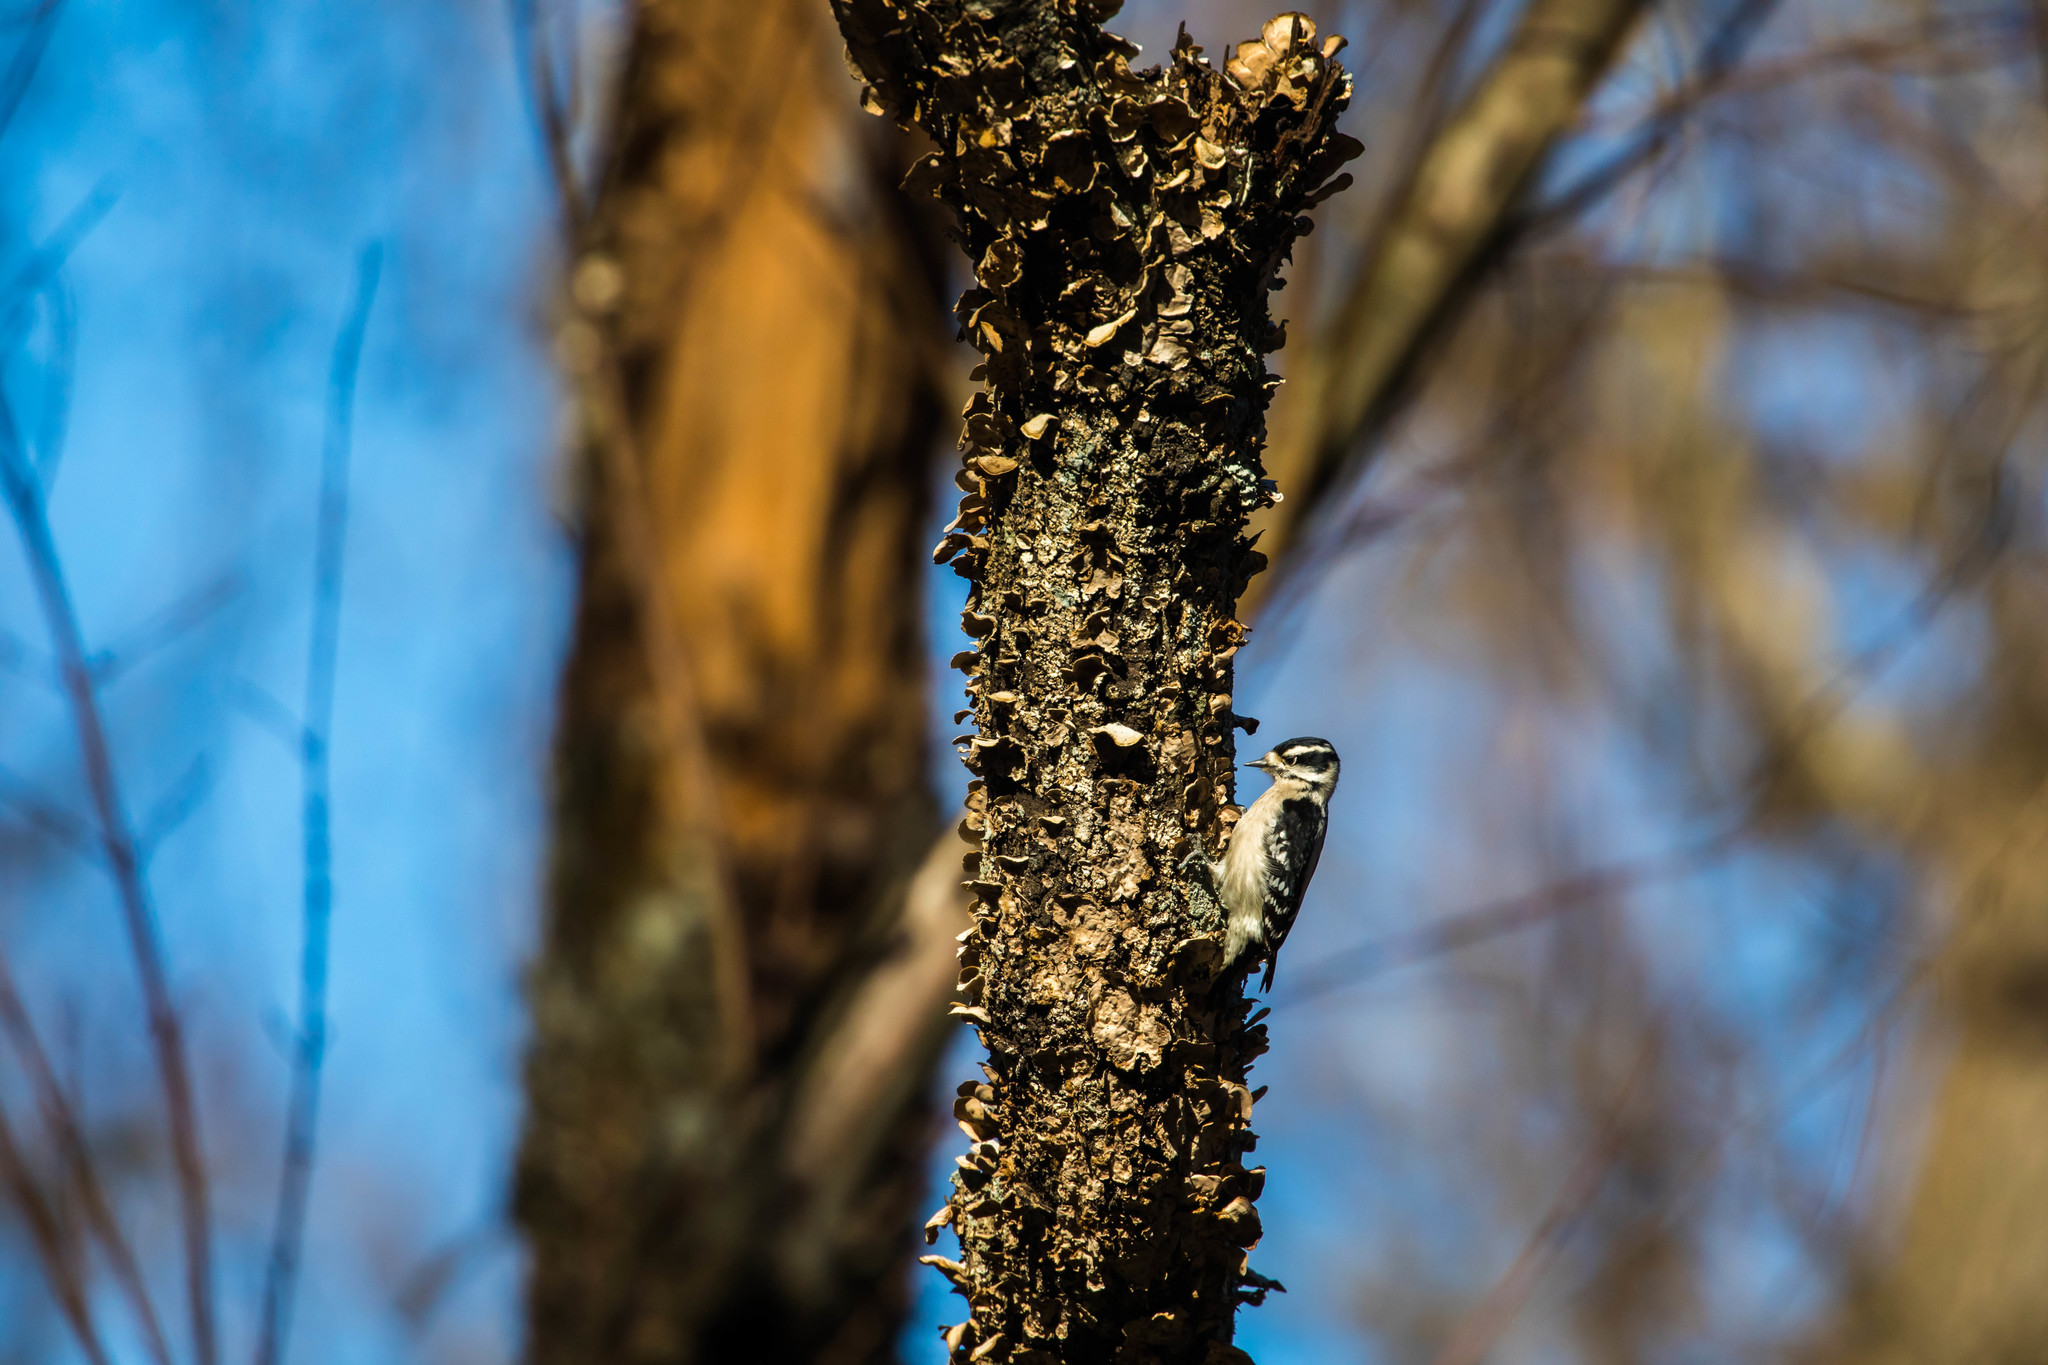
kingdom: Animalia
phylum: Chordata
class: Aves
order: Piciformes
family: Picidae
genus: Dryobates
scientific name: Dryobates pubescens
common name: Downy woodpecker
